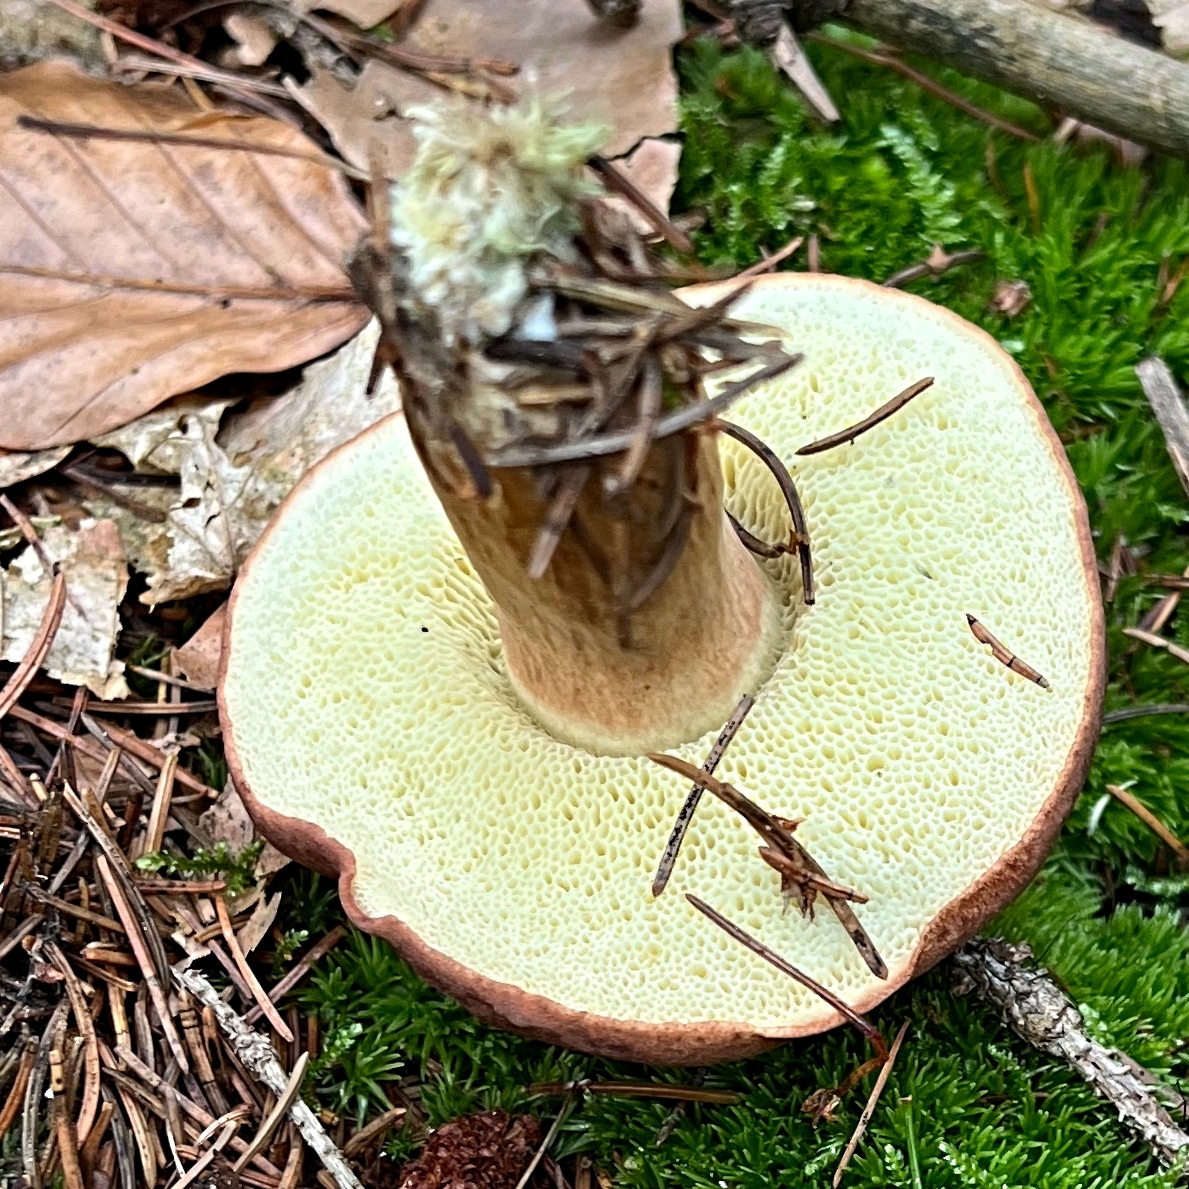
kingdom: Fungi
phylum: Basidiomycota
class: Agaricomycetes
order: Boletales
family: Boletaceae
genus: Imleria
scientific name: Imleria badia
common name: Bay bolete
